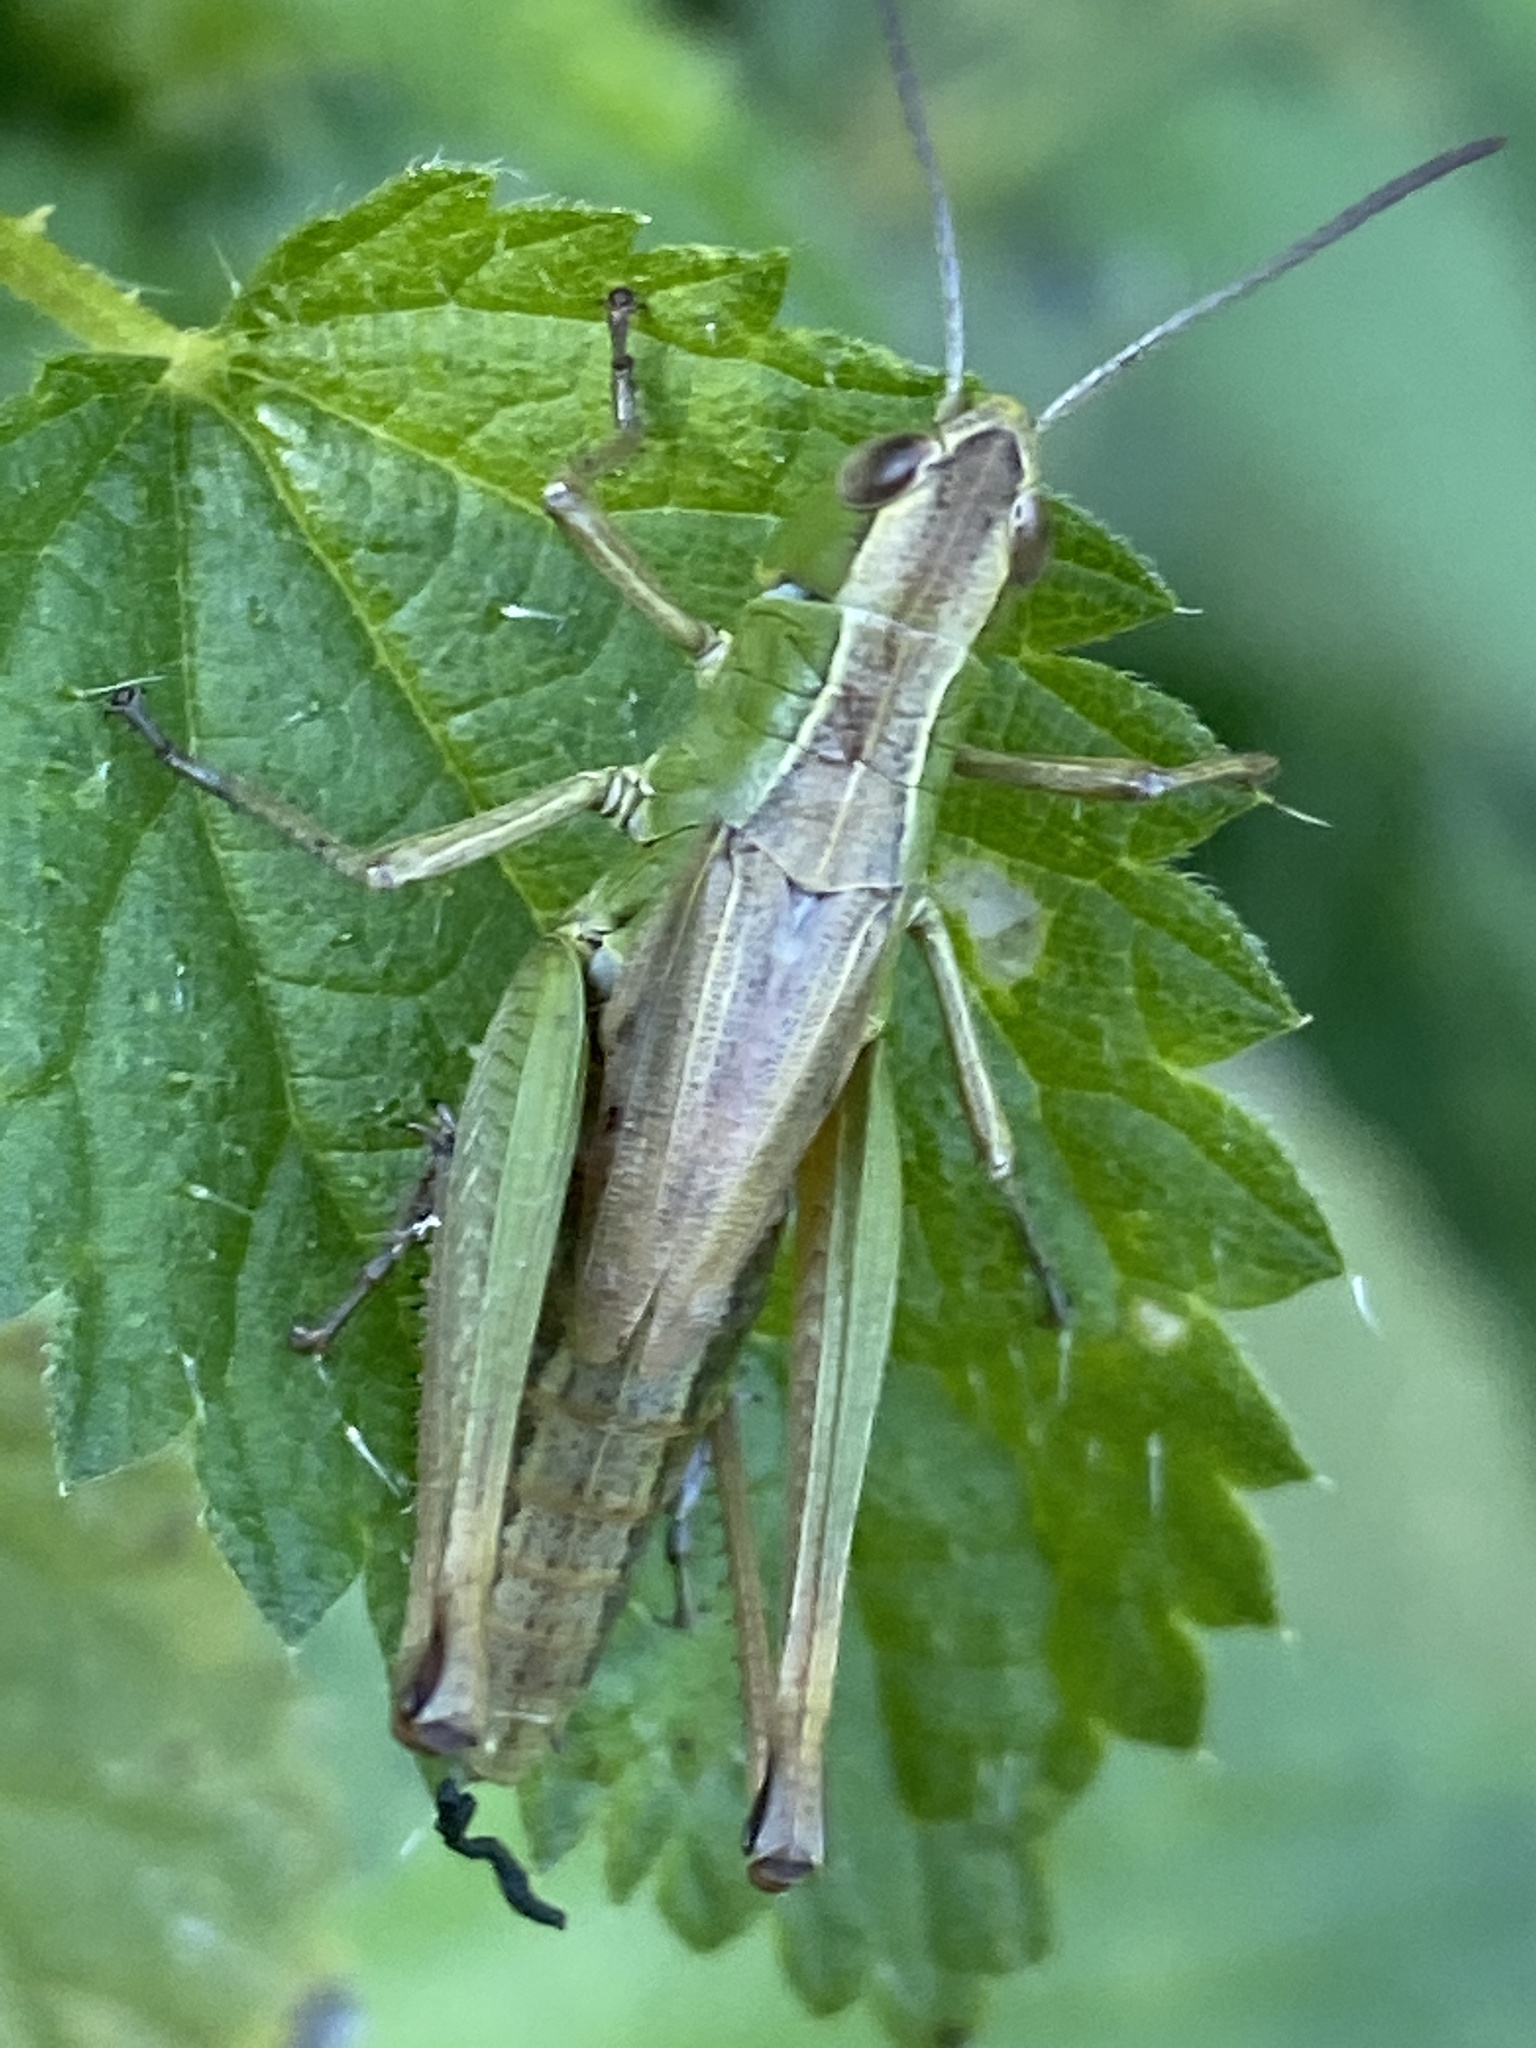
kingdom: Animalia
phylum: Arthropoda
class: Insecta
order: Orthoptera
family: Acrididae
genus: Pseudochorthippus
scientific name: Pseudochorthippus parallelus
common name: Meadow grasshopper
